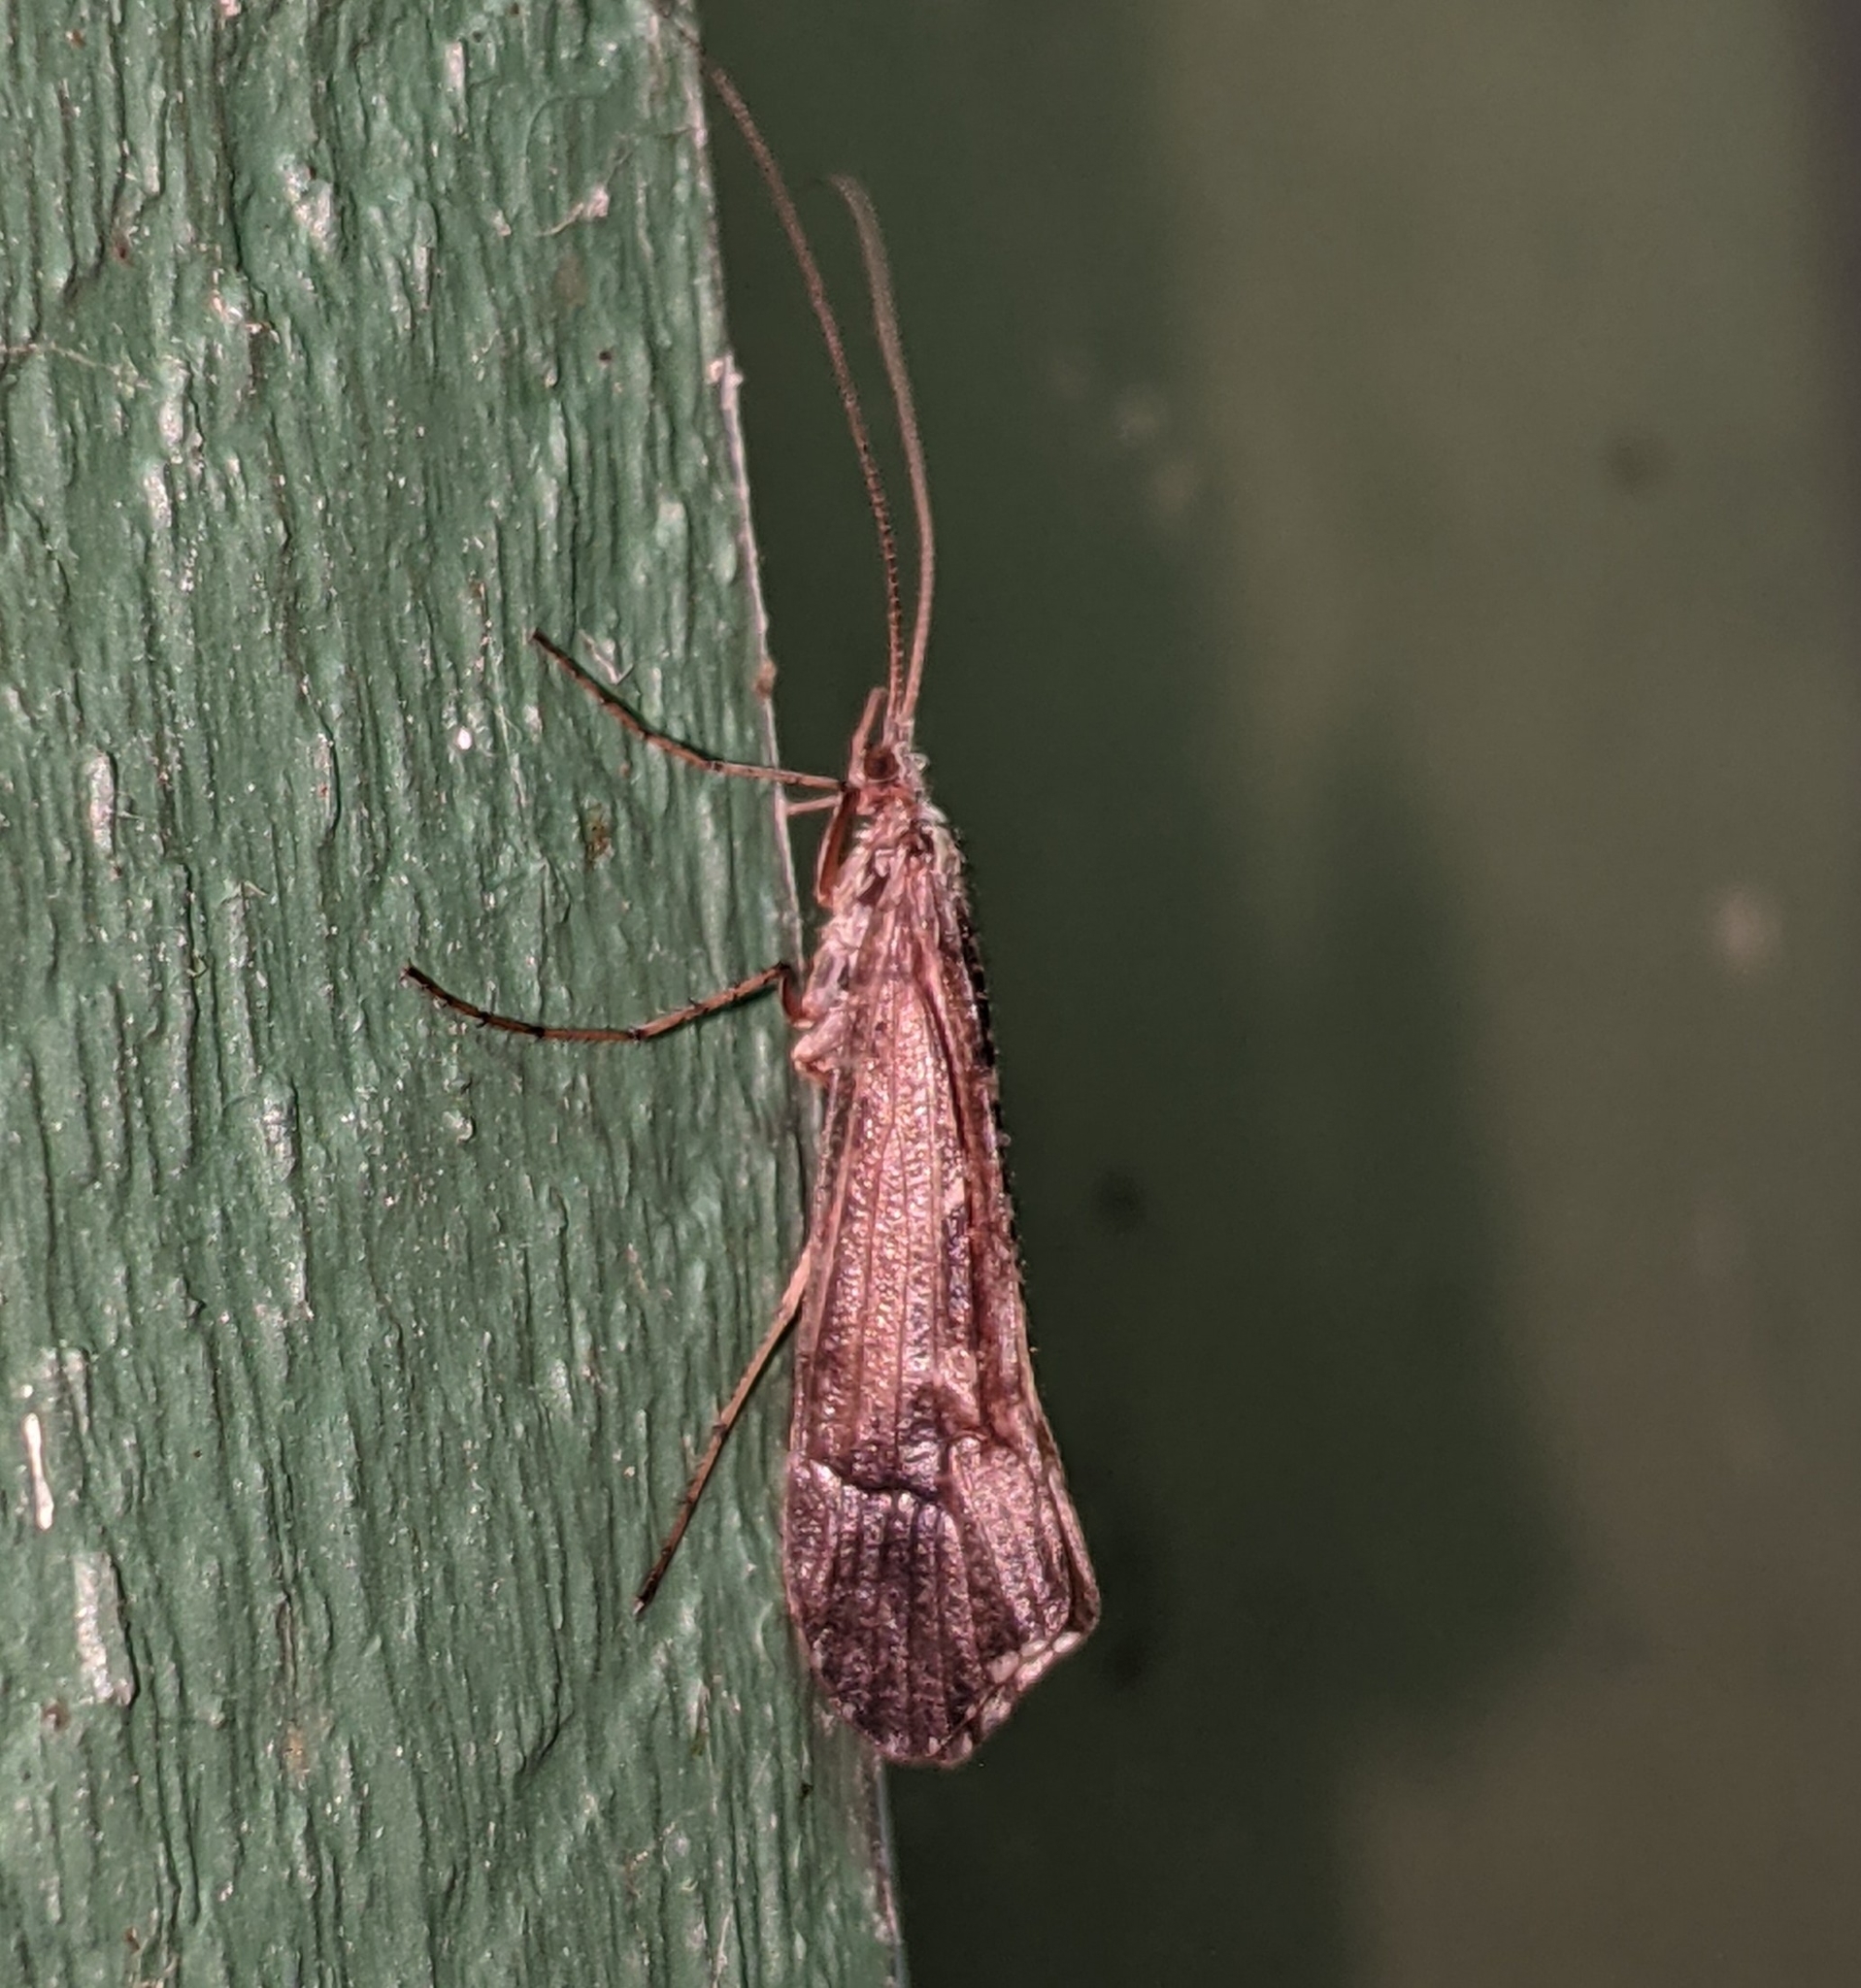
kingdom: Animalia
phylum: Arthropoda
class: Insecta
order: Trichoptera
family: Limnephilidae
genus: Glyphopsyche
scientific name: Glyphopsyche irrorata
